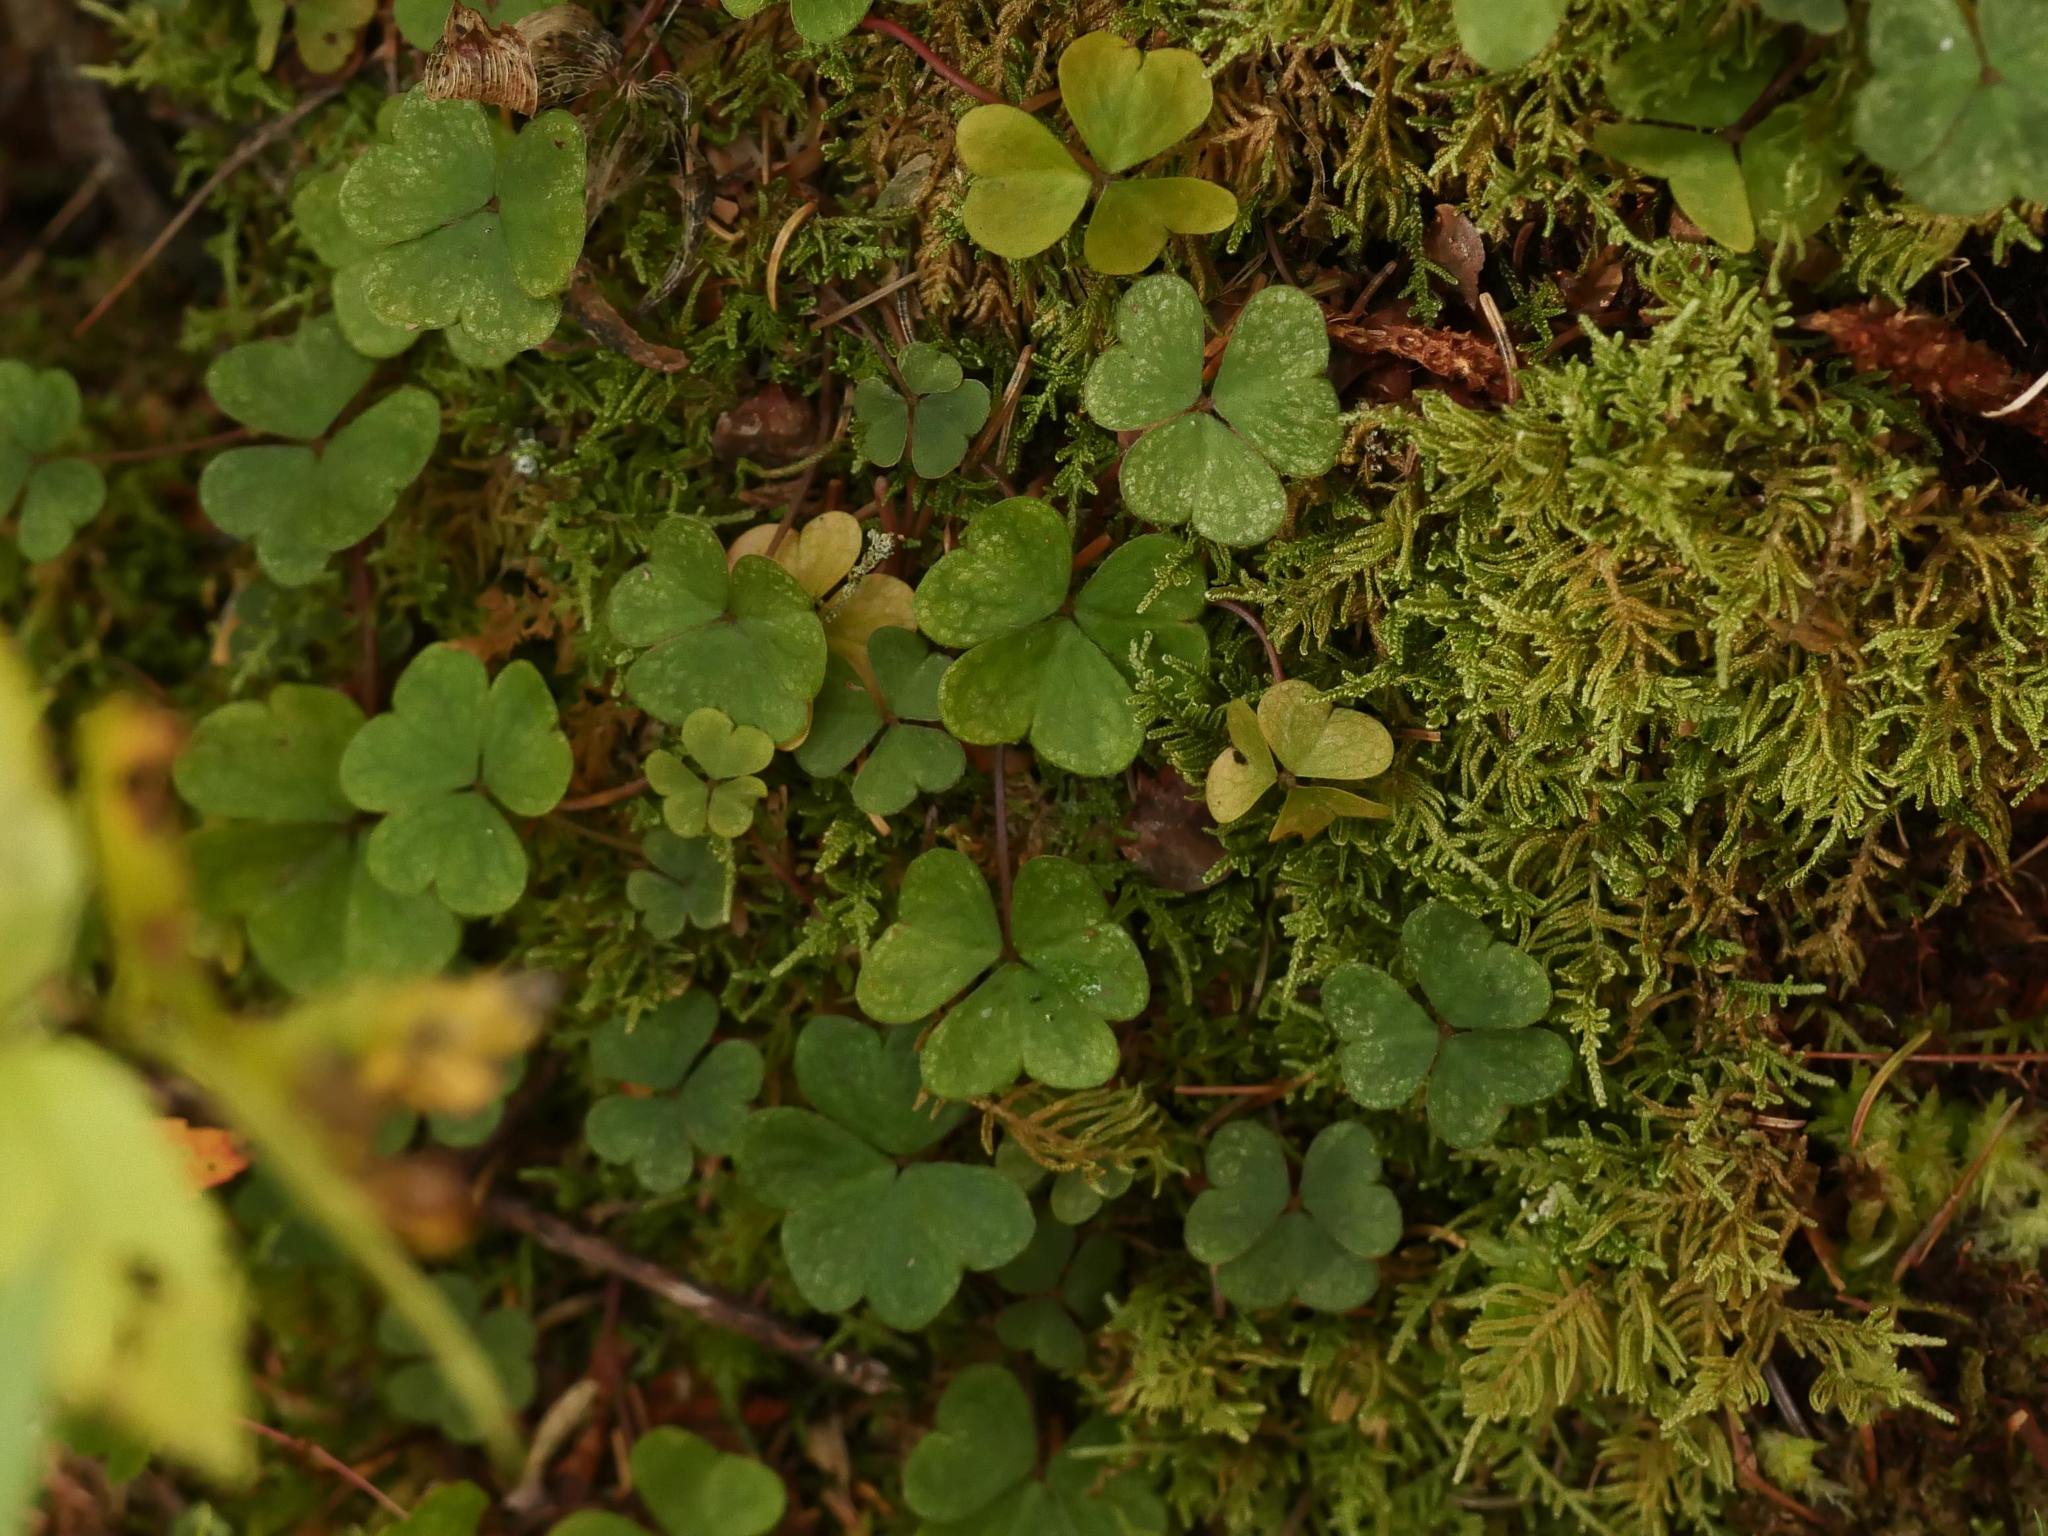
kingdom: Plantae
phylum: Tracheophyta
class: Magnoliopsida
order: Oxalidales
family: Oxalidaceae
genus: Oxalis
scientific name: Oxalis montana
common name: American wood-sorrel
